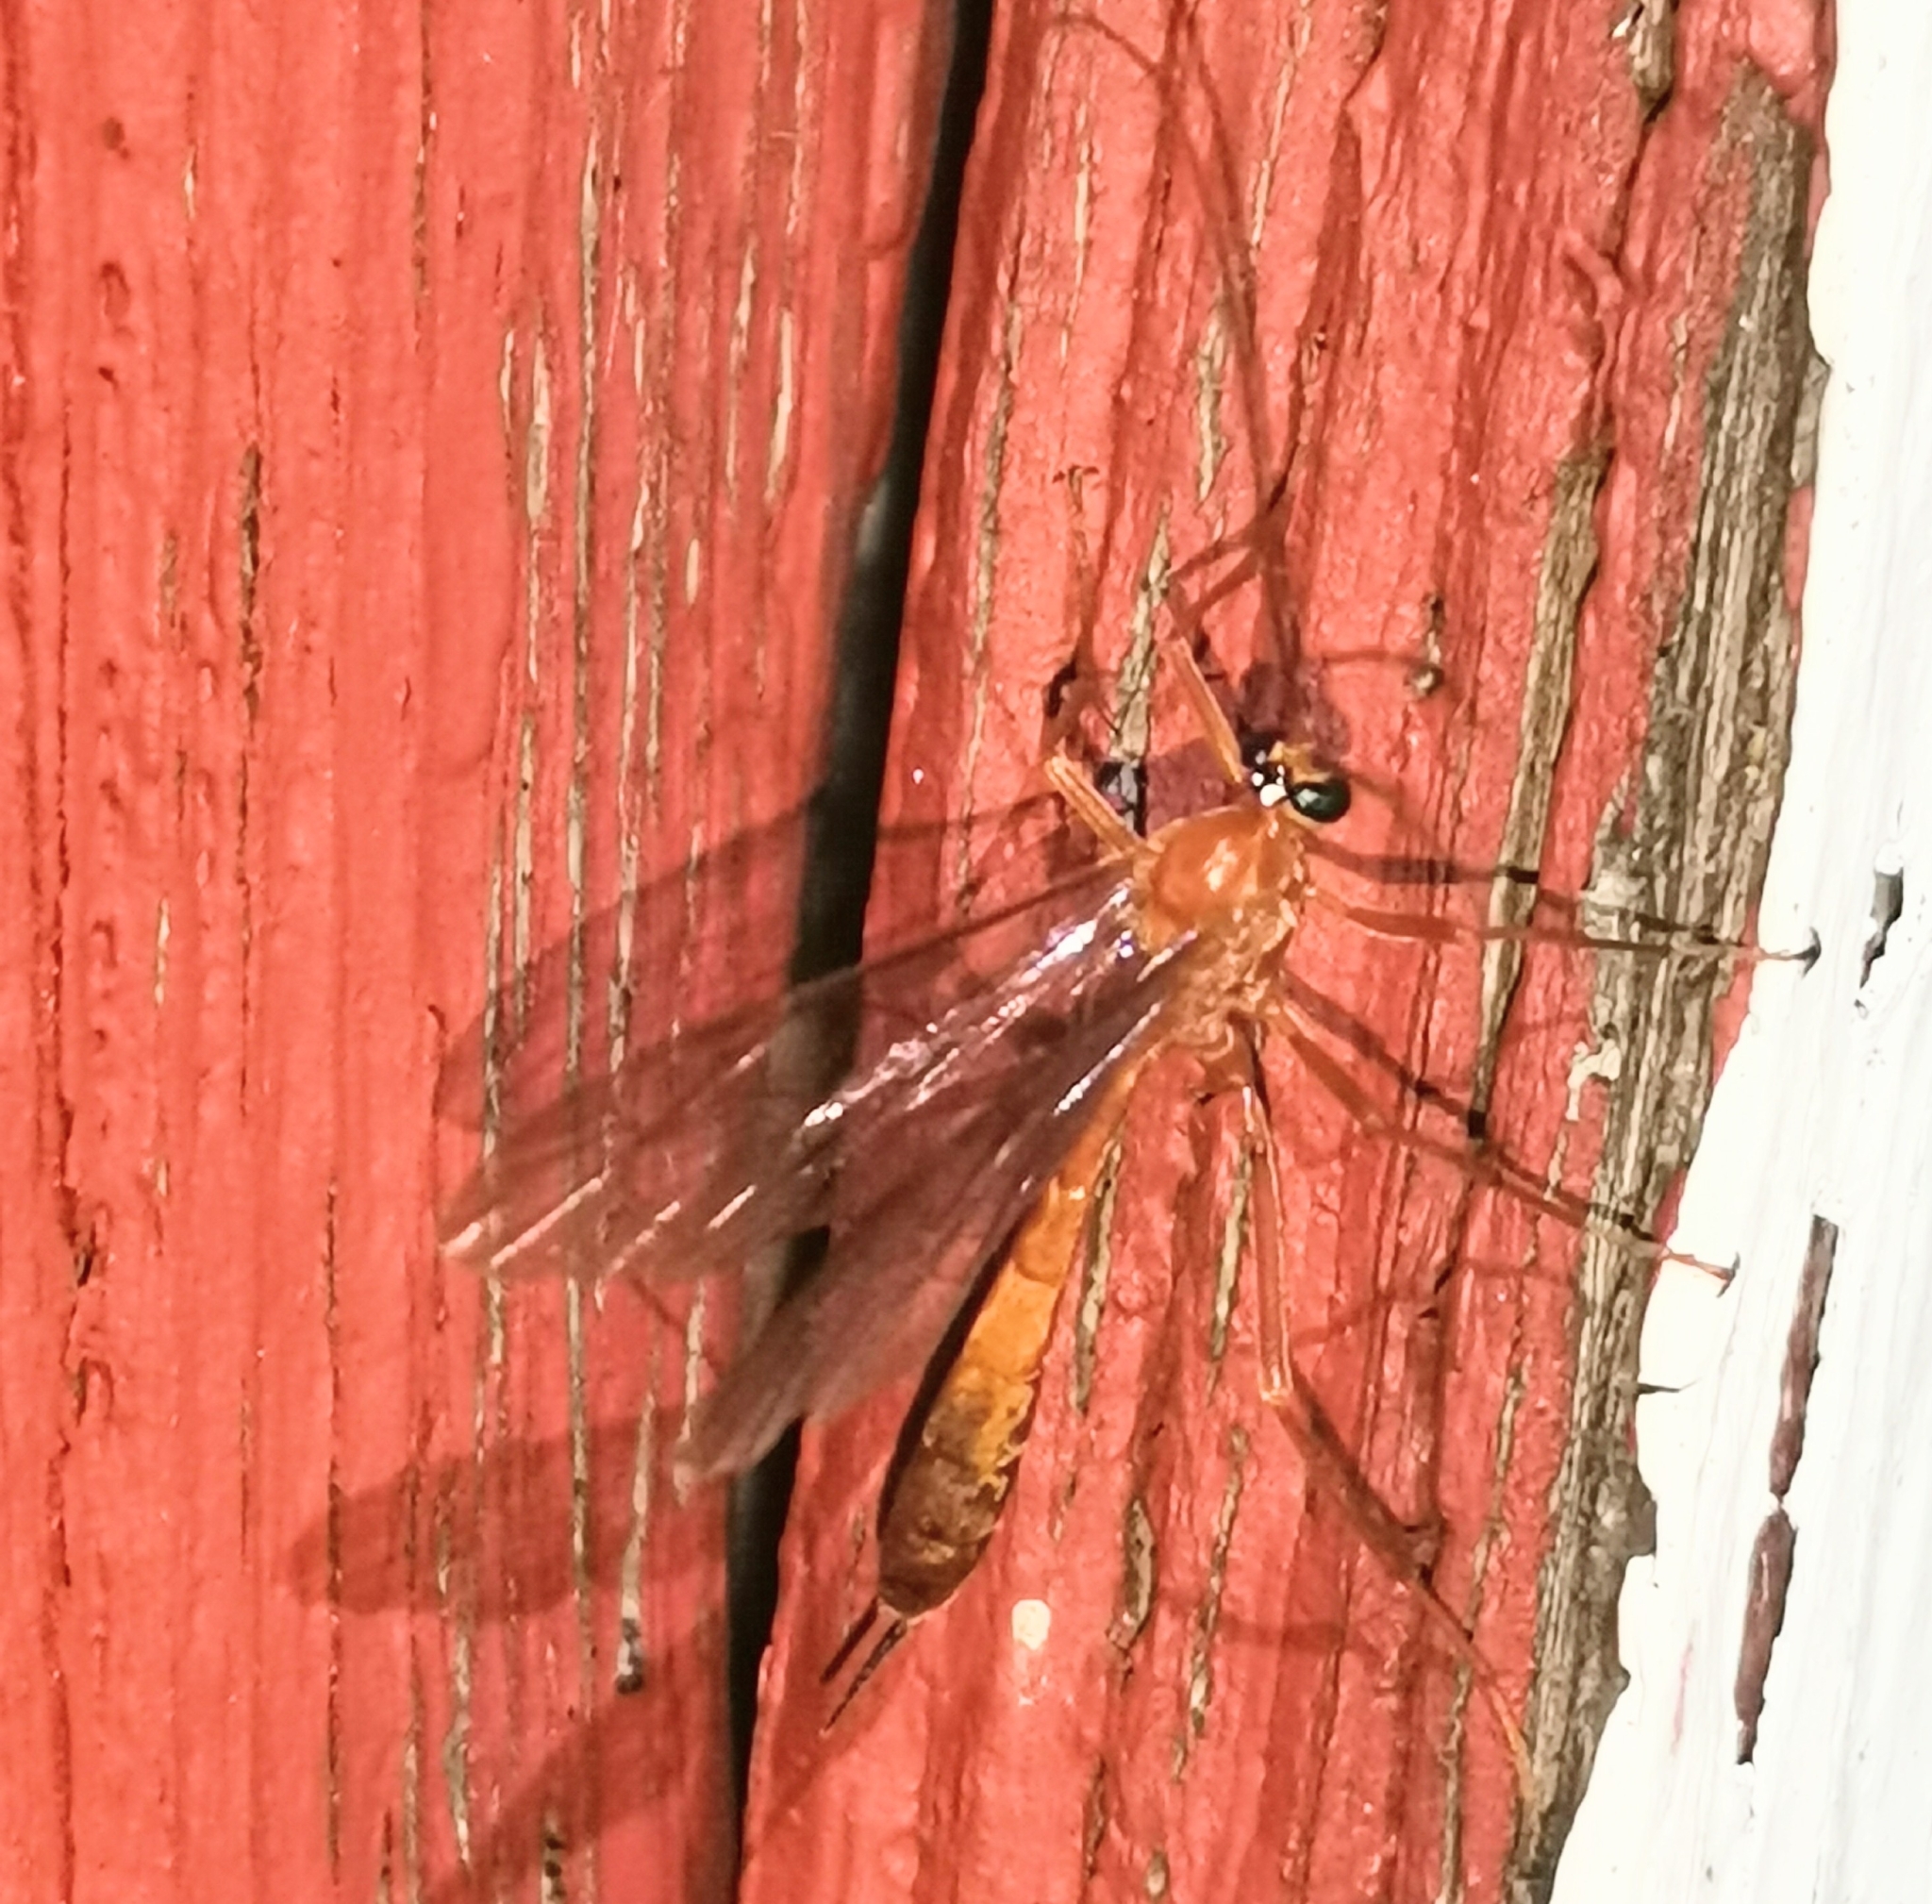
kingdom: Animalia
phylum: Arthropoda
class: Insecta
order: Hymenoptera
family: Ichneumonidae
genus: Netelia
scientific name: Netelia
